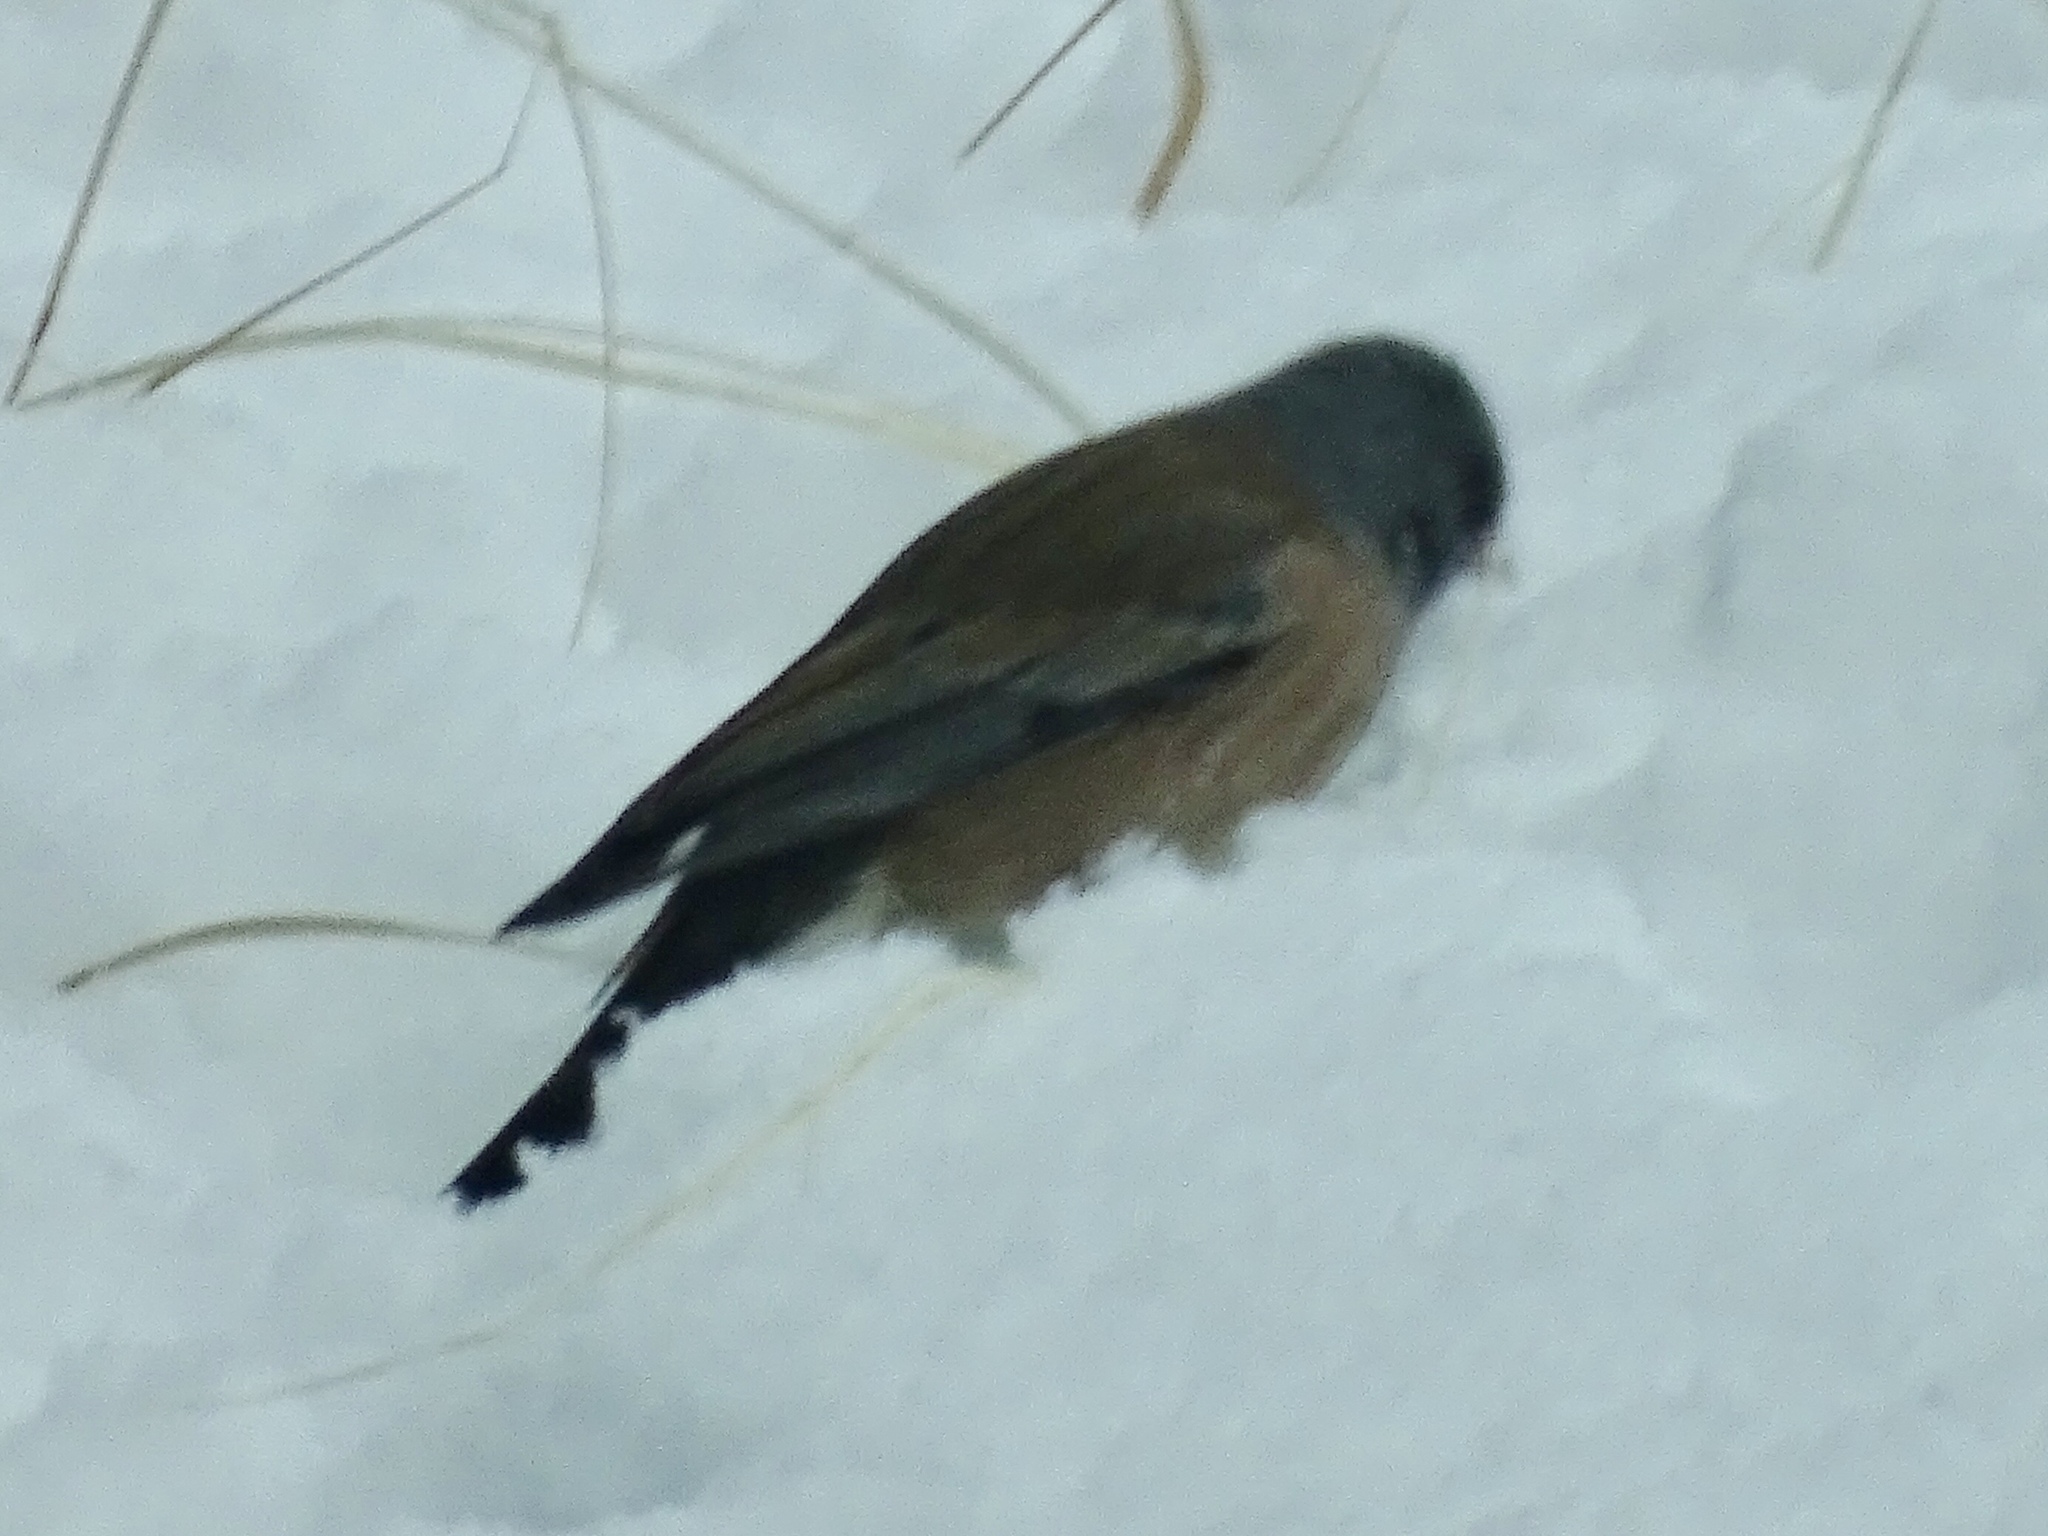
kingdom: Animalia
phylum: Chordata
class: Aves
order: Passeriformes
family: Passerellidae
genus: Junco
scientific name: Junco hyemalis
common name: Dark-eyed junco
